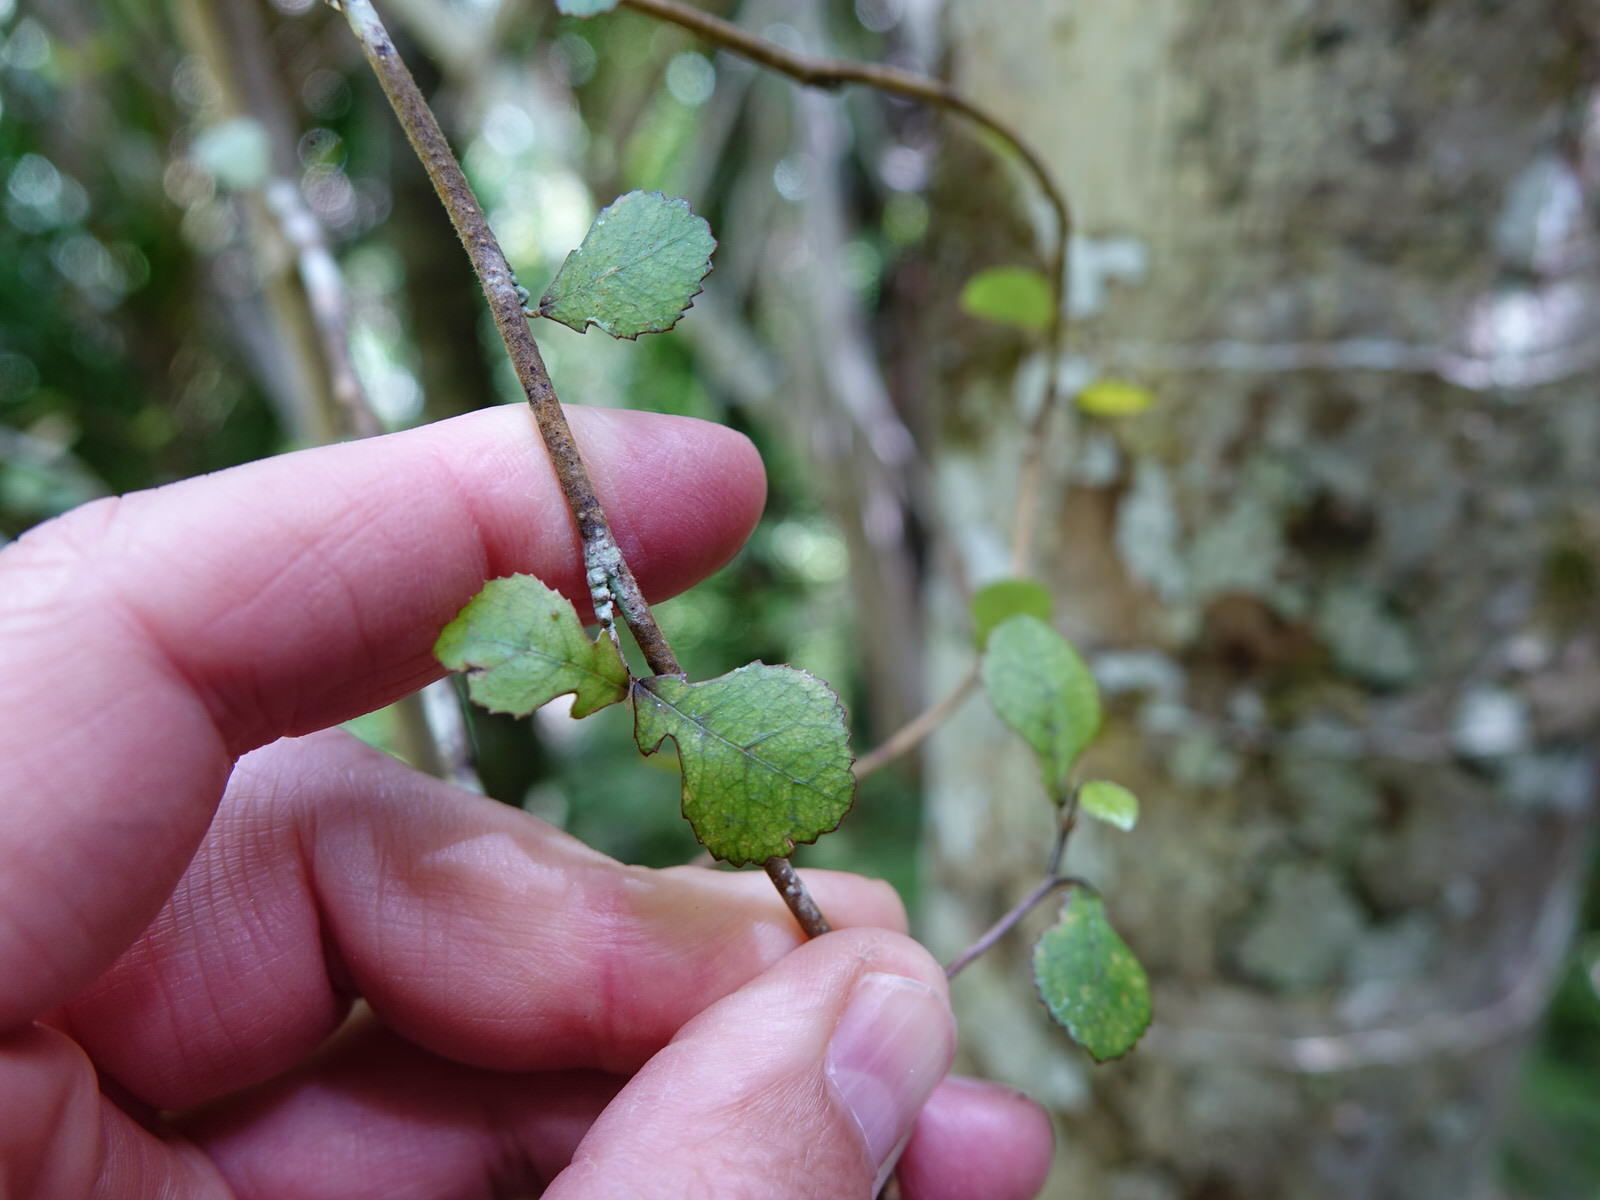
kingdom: Plantae
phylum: Tracheophyta
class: Magnoliopsida
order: Rosales
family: Moraceae
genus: Paratrophis
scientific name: Paratrophis microphylla
